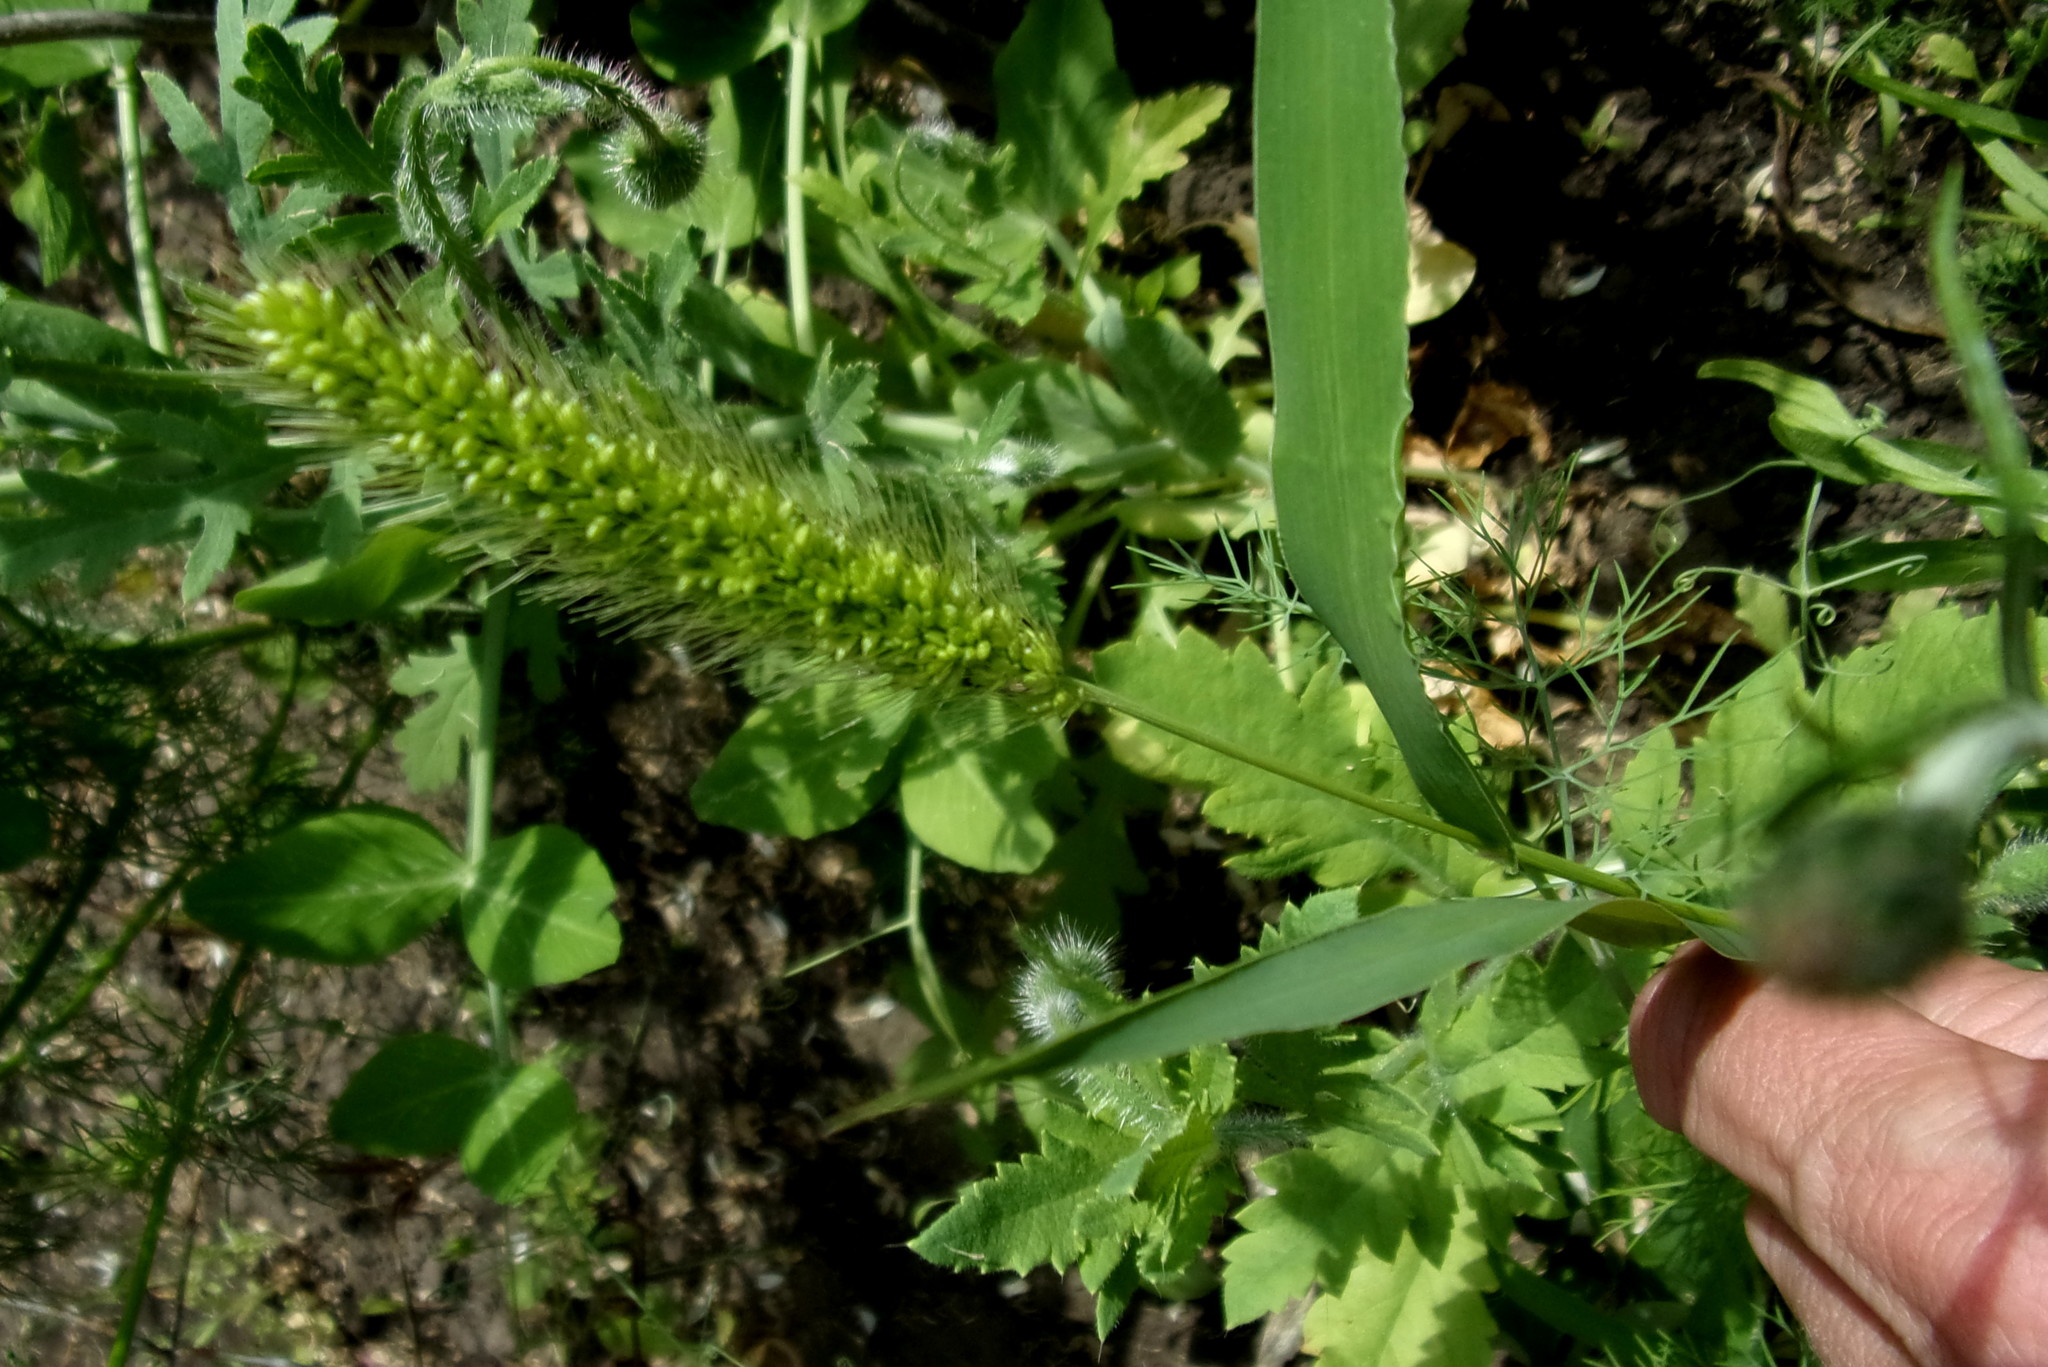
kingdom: Plantae
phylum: Tracheophyta
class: Liliopsida
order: Poales
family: Poaceae
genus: Setaria
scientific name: Setaria viridis
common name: Green bristlegrass
